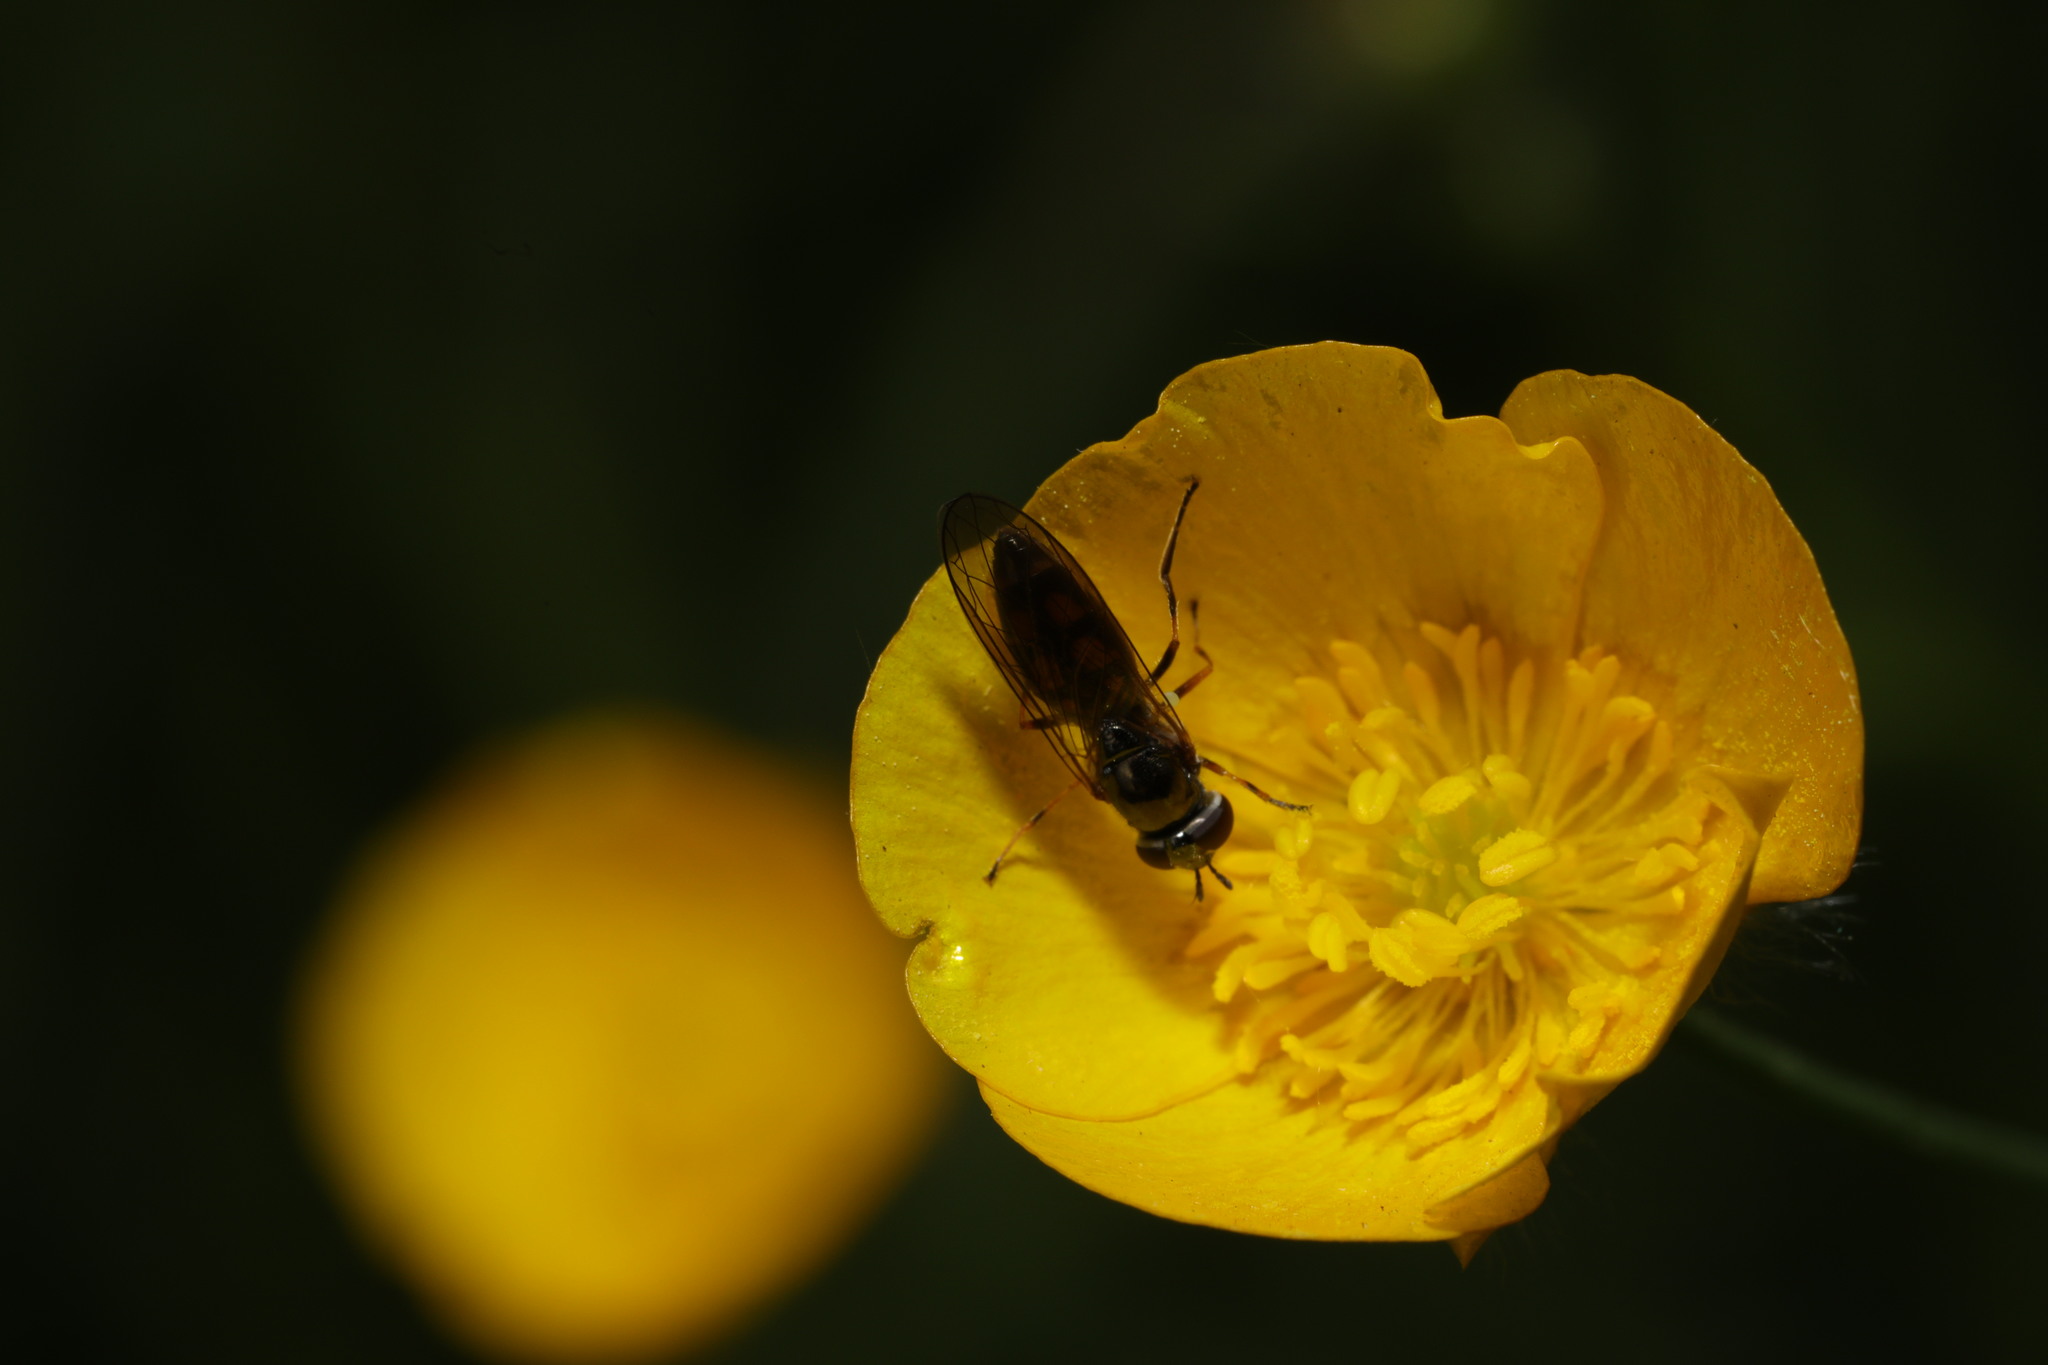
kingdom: Animalia
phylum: Arthropoda
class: Insecta
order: Diptera
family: Syrphidae
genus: Melanostoma
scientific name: Melanostoma mellina
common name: Hover fly
